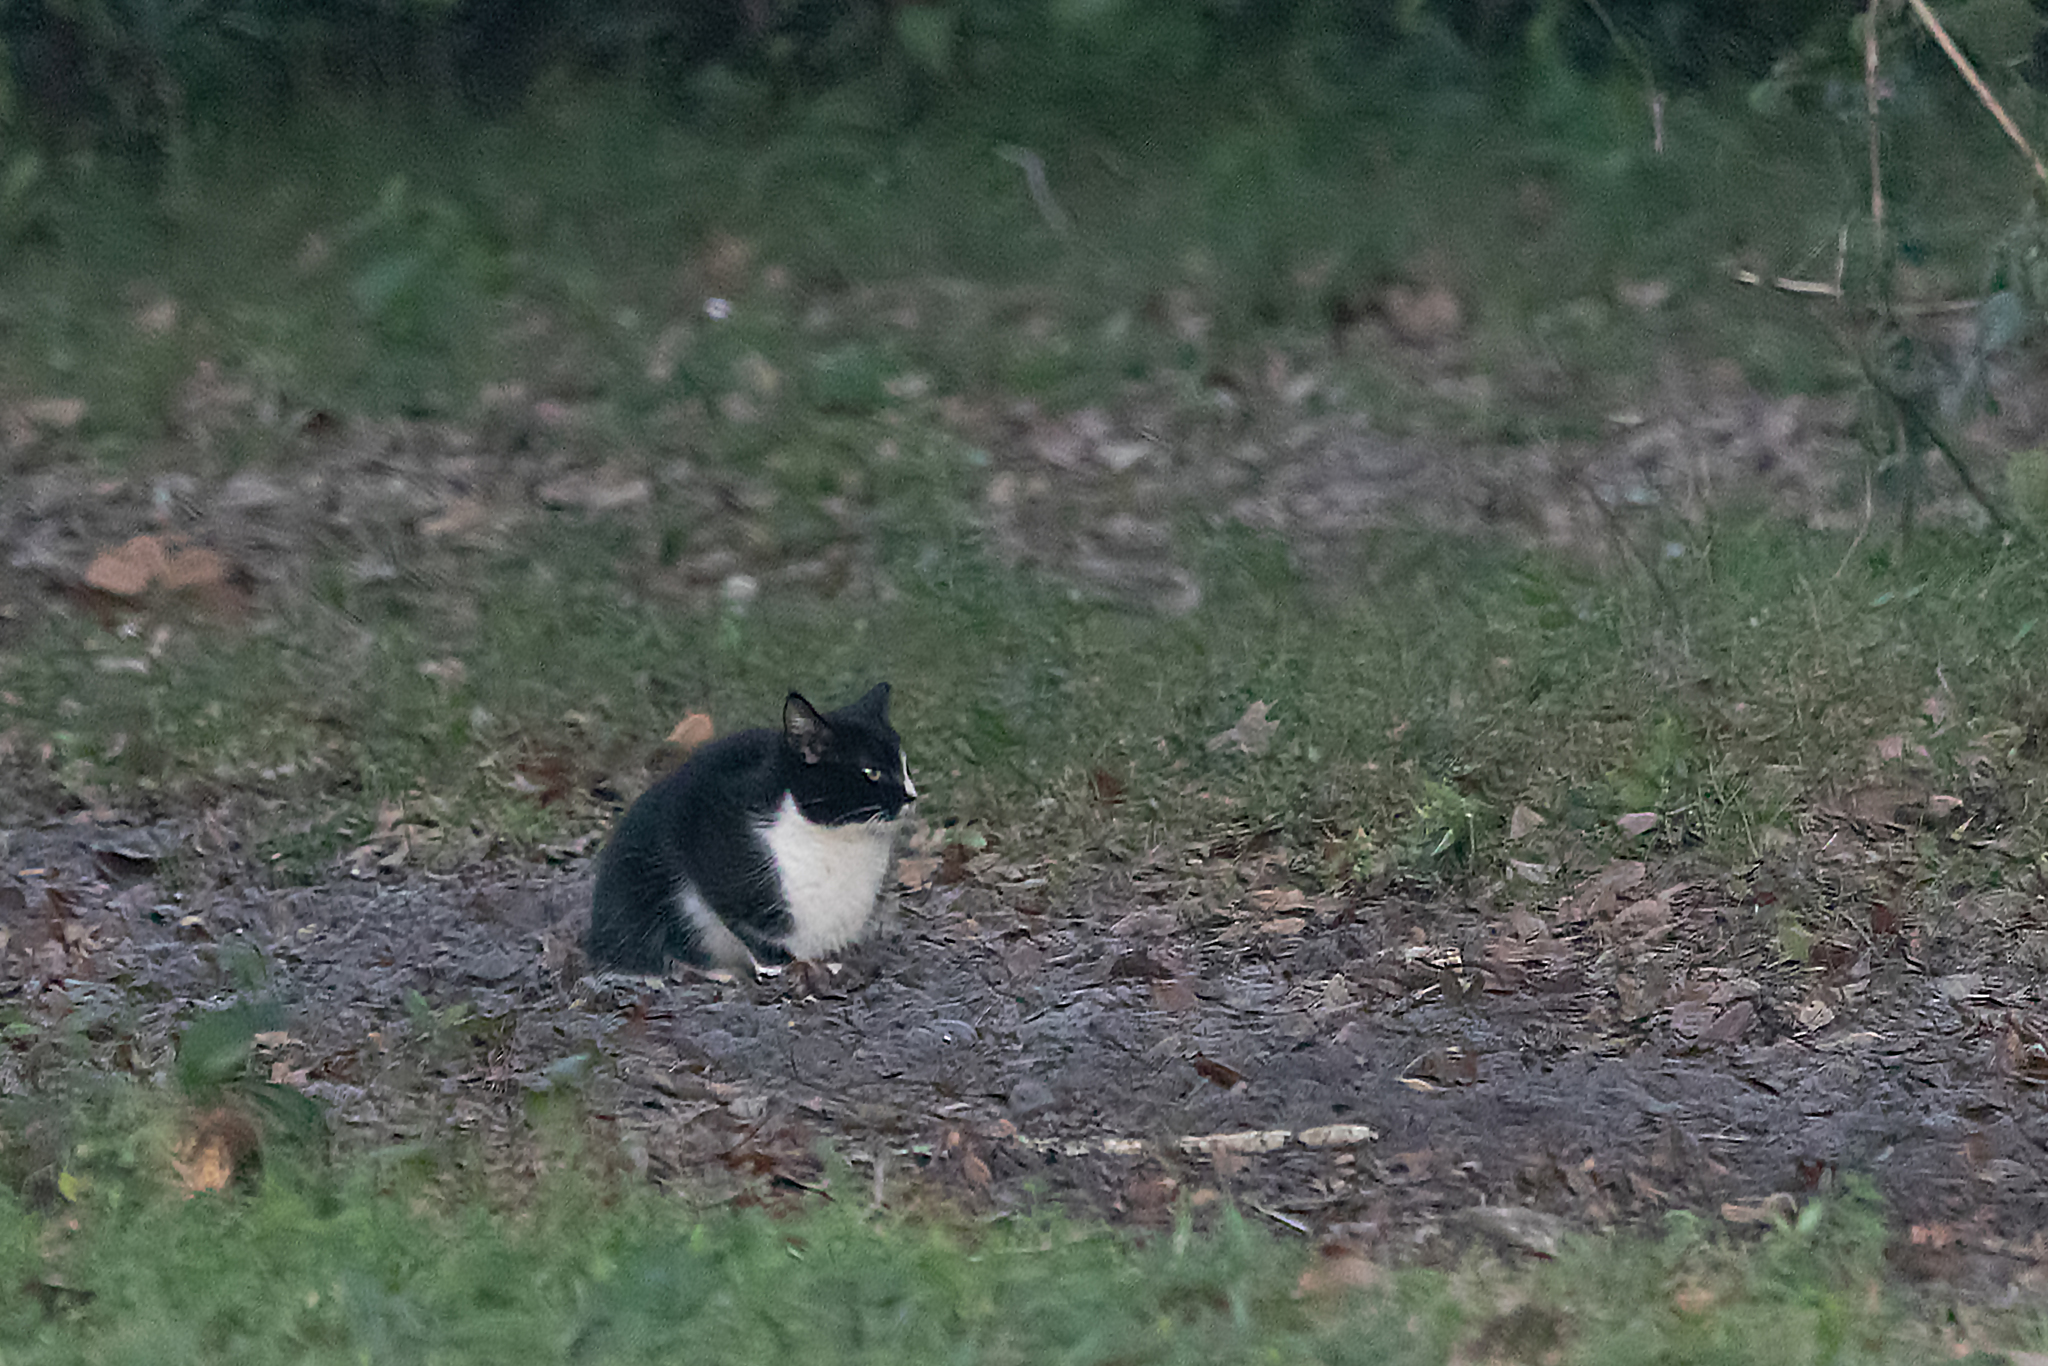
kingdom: Animalia
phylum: Chordata
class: Mammalia
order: Carnivora
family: Felidae
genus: Felis
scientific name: Felis catus
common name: Domestic cat
